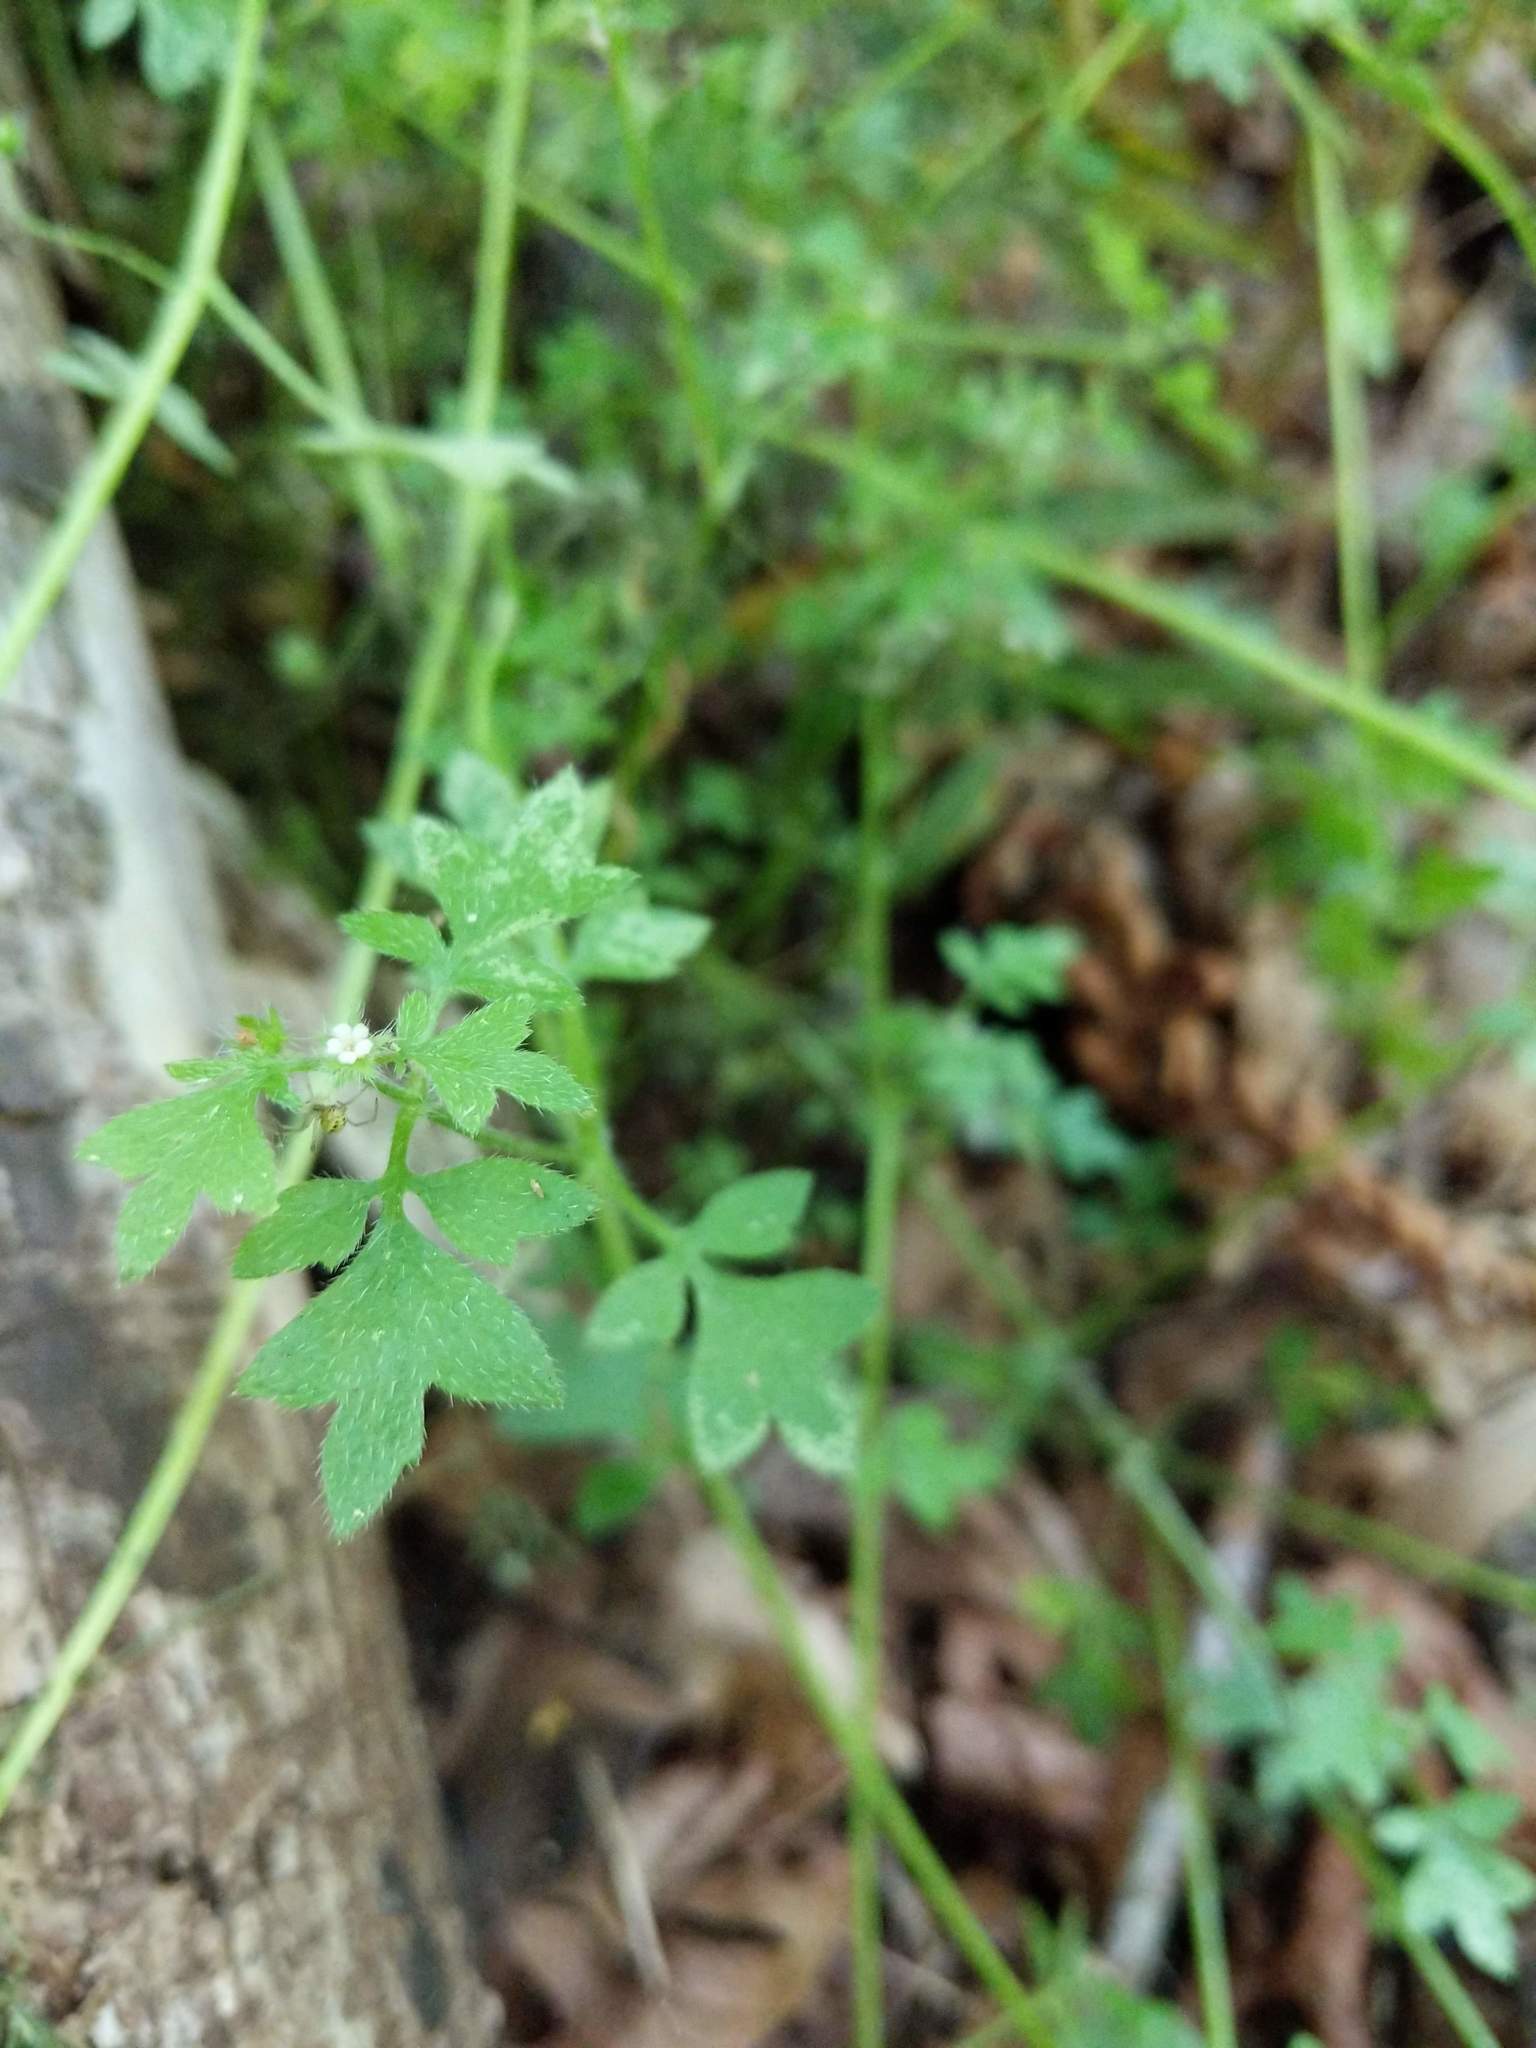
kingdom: Plantae
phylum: Tracheophyta
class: Magnoliopsida
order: Boraginales
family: Hydrophyllaceae
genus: Nemophila
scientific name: Nemophila parviflora
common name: Small-flowered baby-blue-eyes
